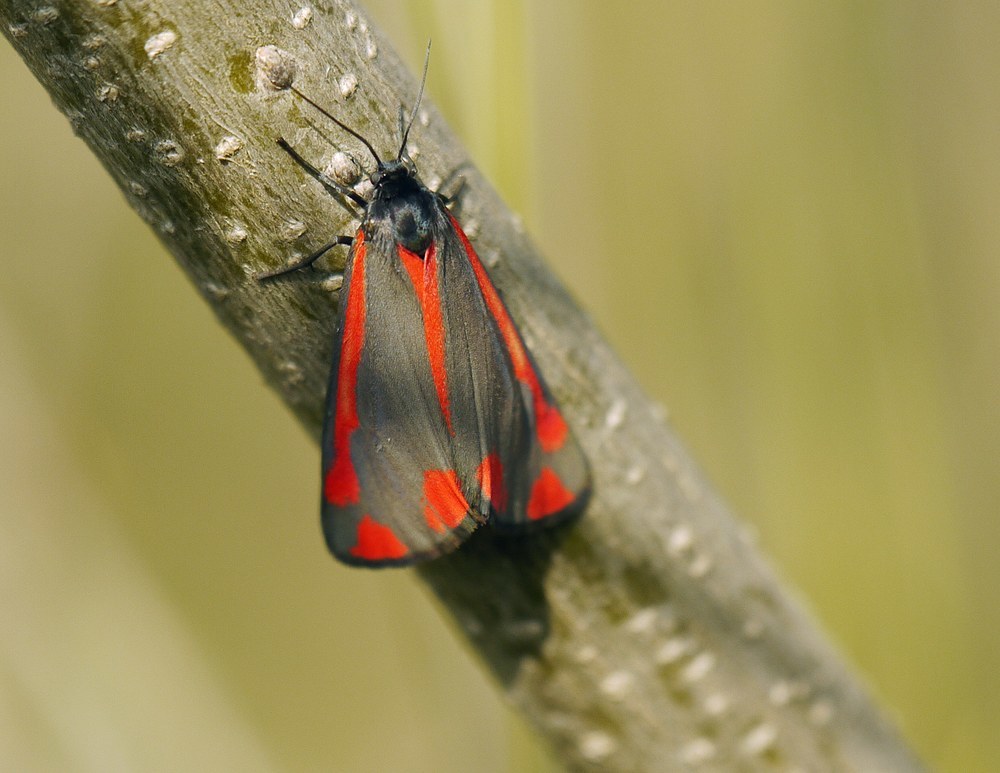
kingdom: Animalia
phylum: Arthropoda
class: Insecta
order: Lepidoptera
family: Erebidae
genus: Tyria
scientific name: Tyria jacobaeae
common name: Cinnabar
